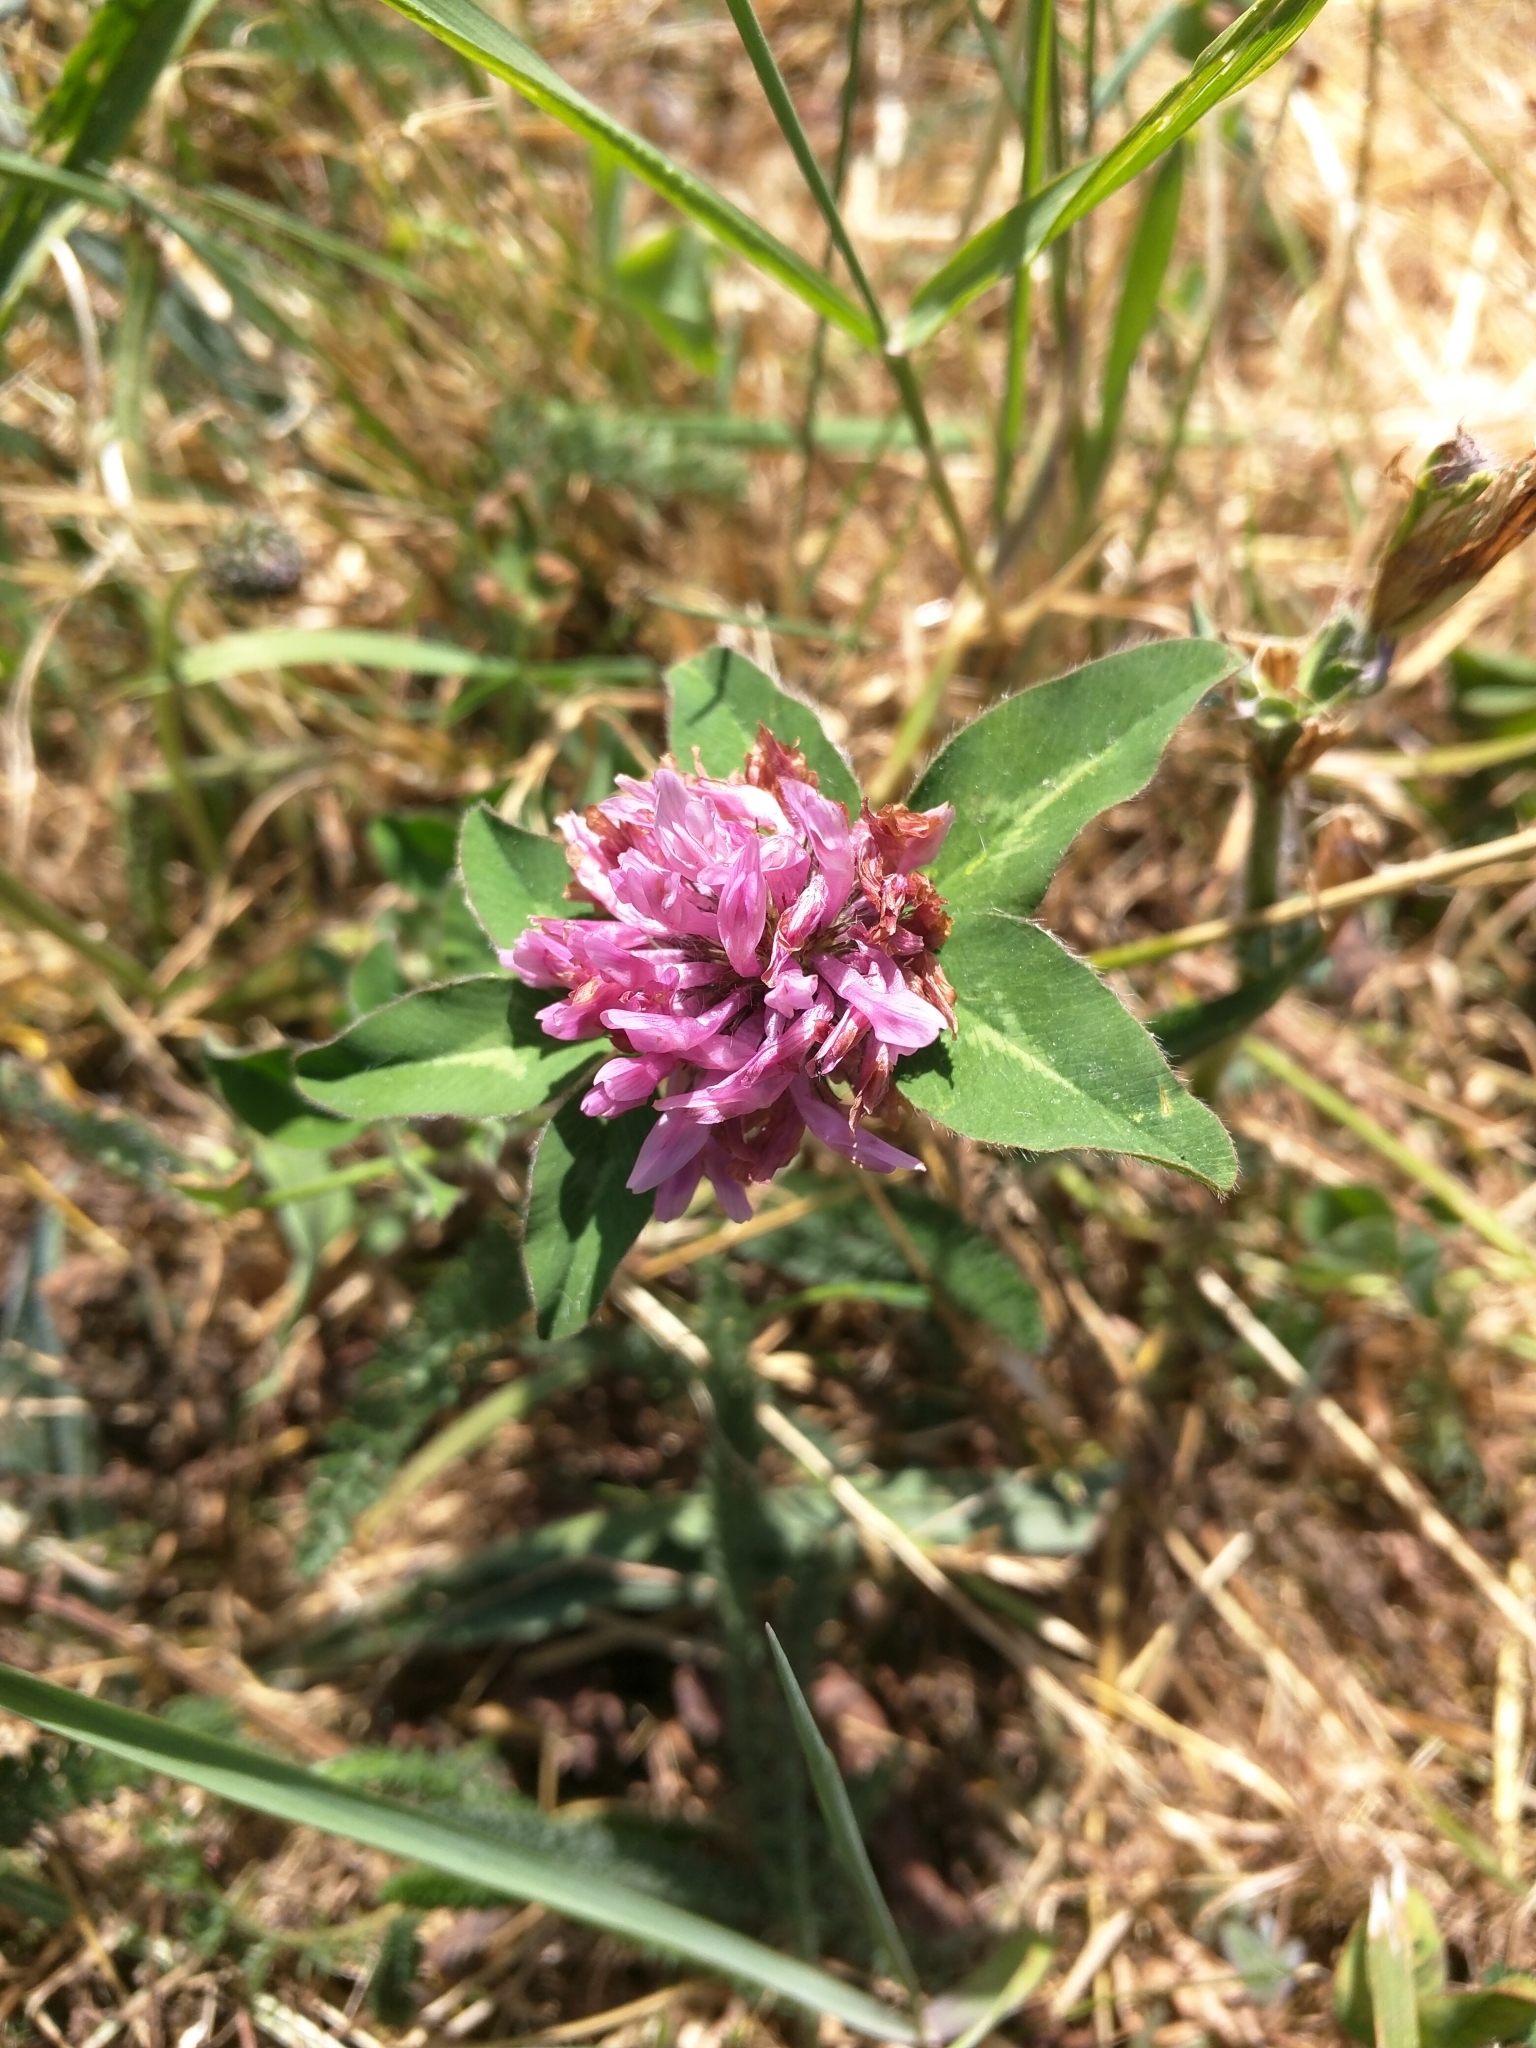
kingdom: Plantae
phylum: Tracheophyta
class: Magnoliopsida
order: Fabales
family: Fabaceae
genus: Trifolium
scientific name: Trifolium pratense
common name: Red clover
